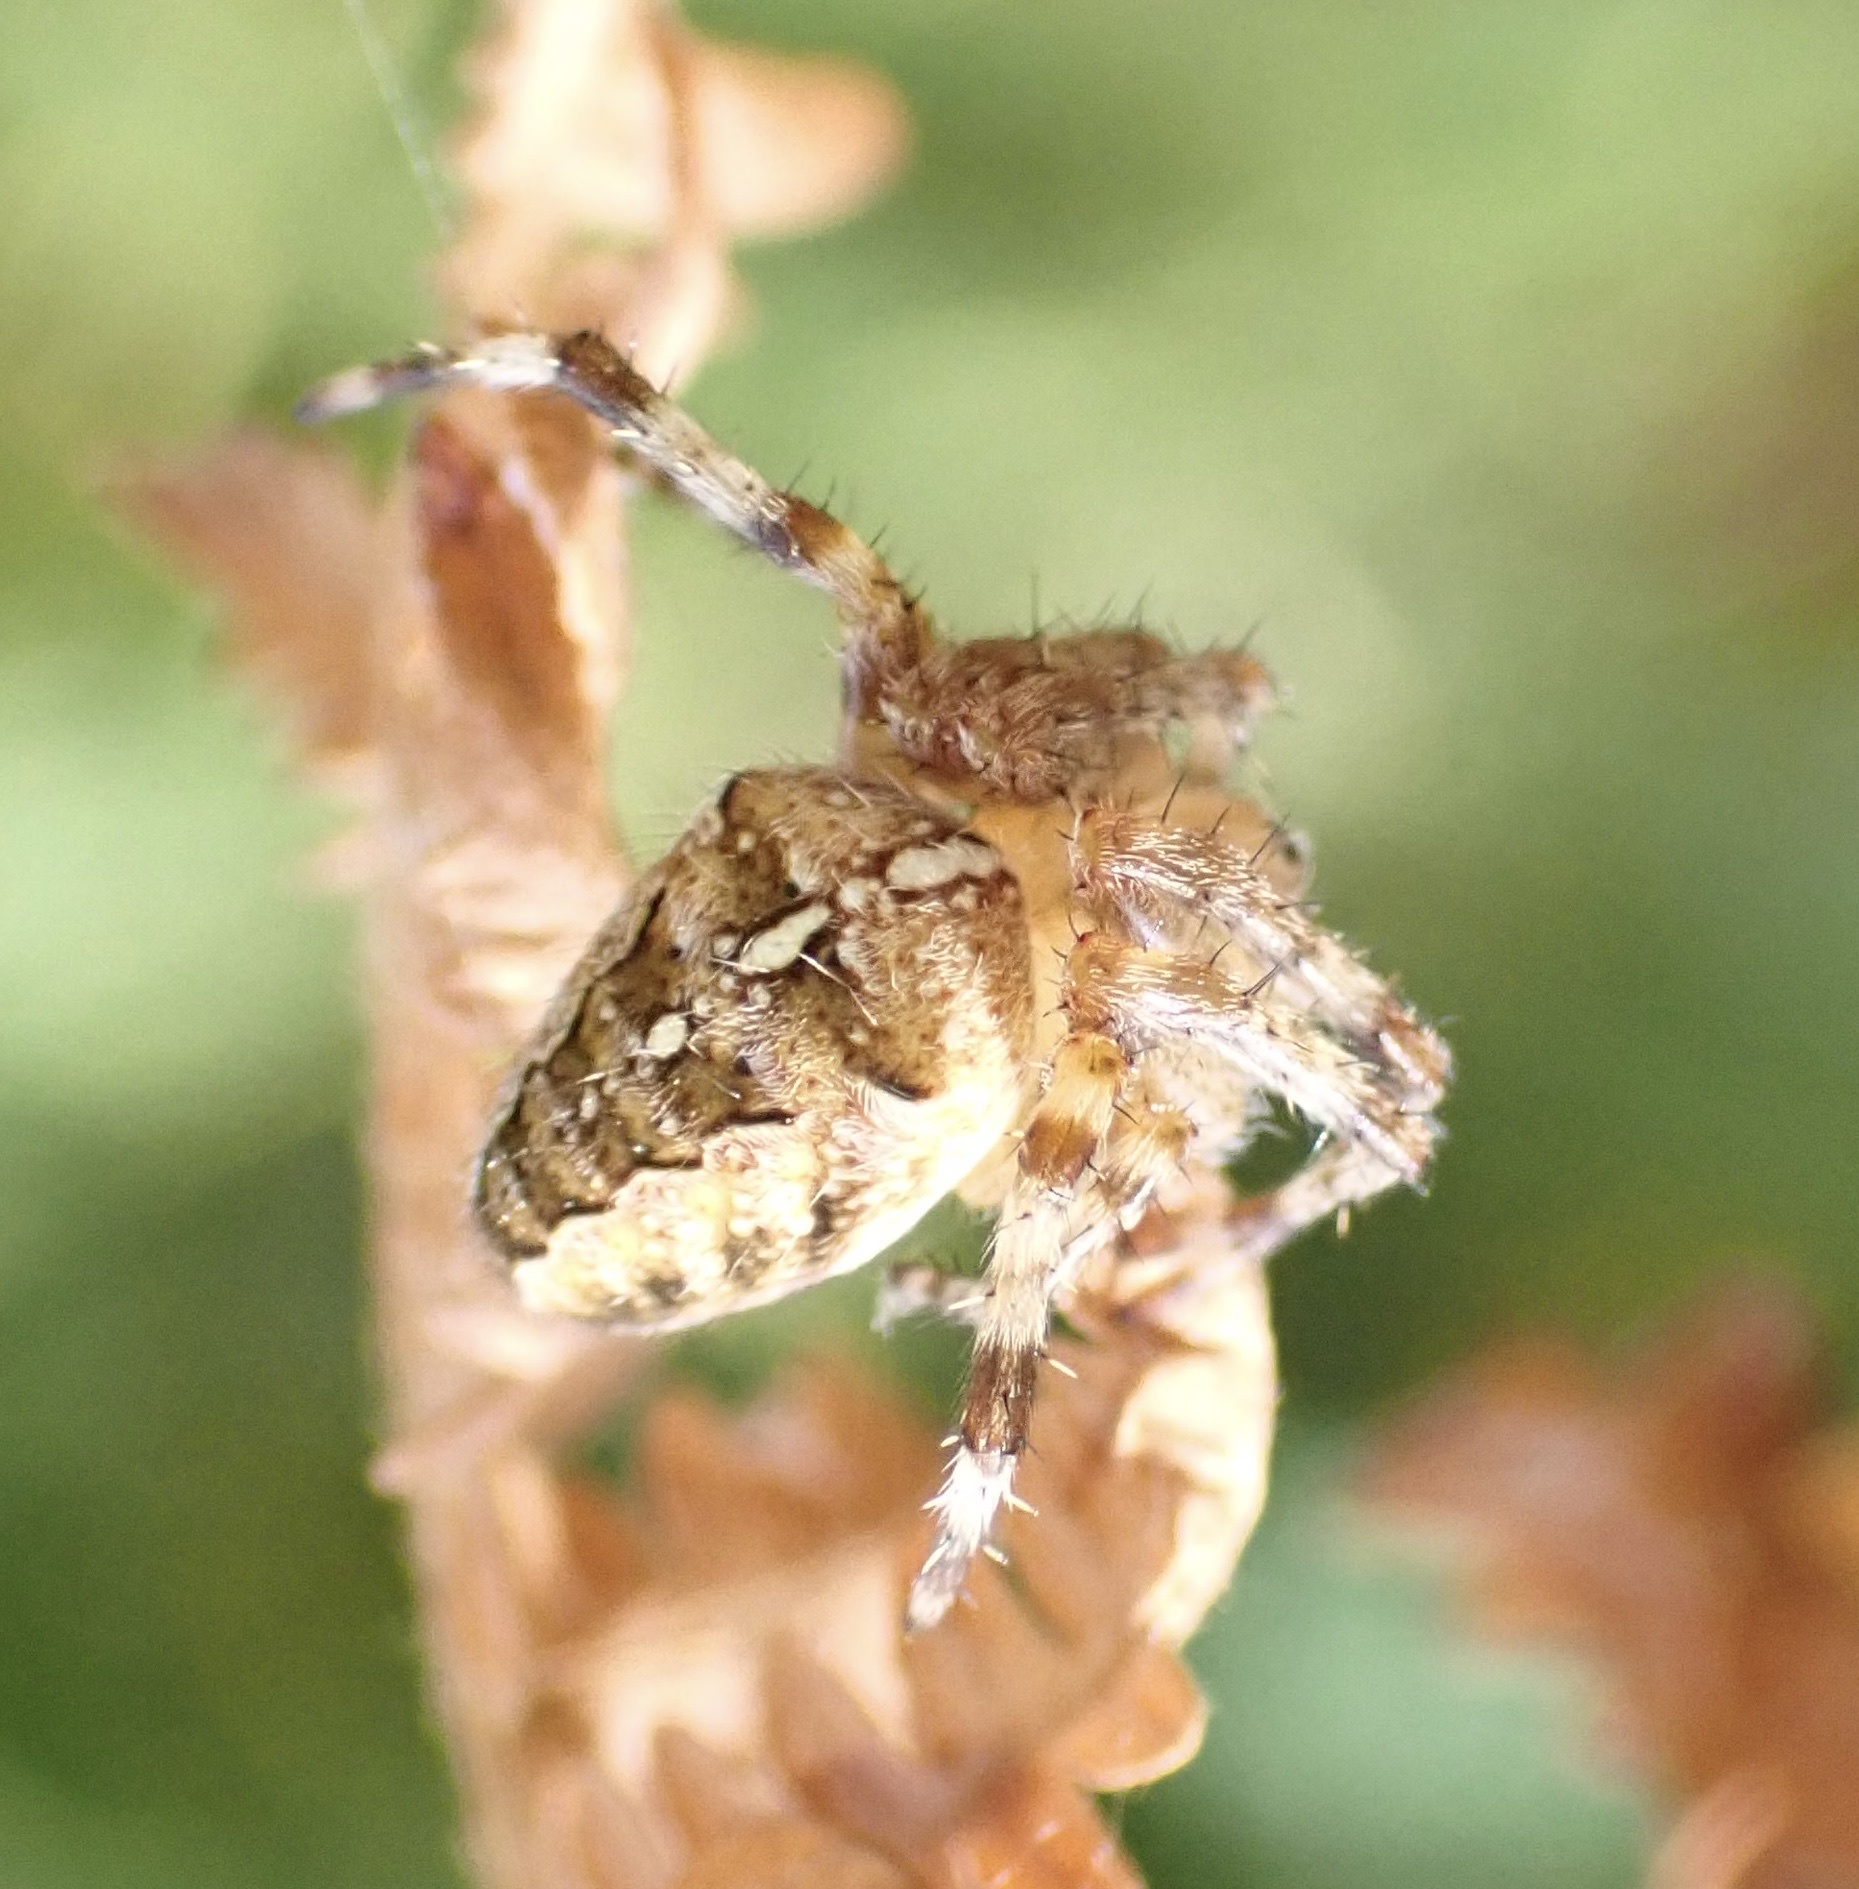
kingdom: Animalia
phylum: Arthropoda
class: Arachnida
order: Araneae
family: Araneidae
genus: Araneus
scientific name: Araneus diadematus
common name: Cross orbweaver
